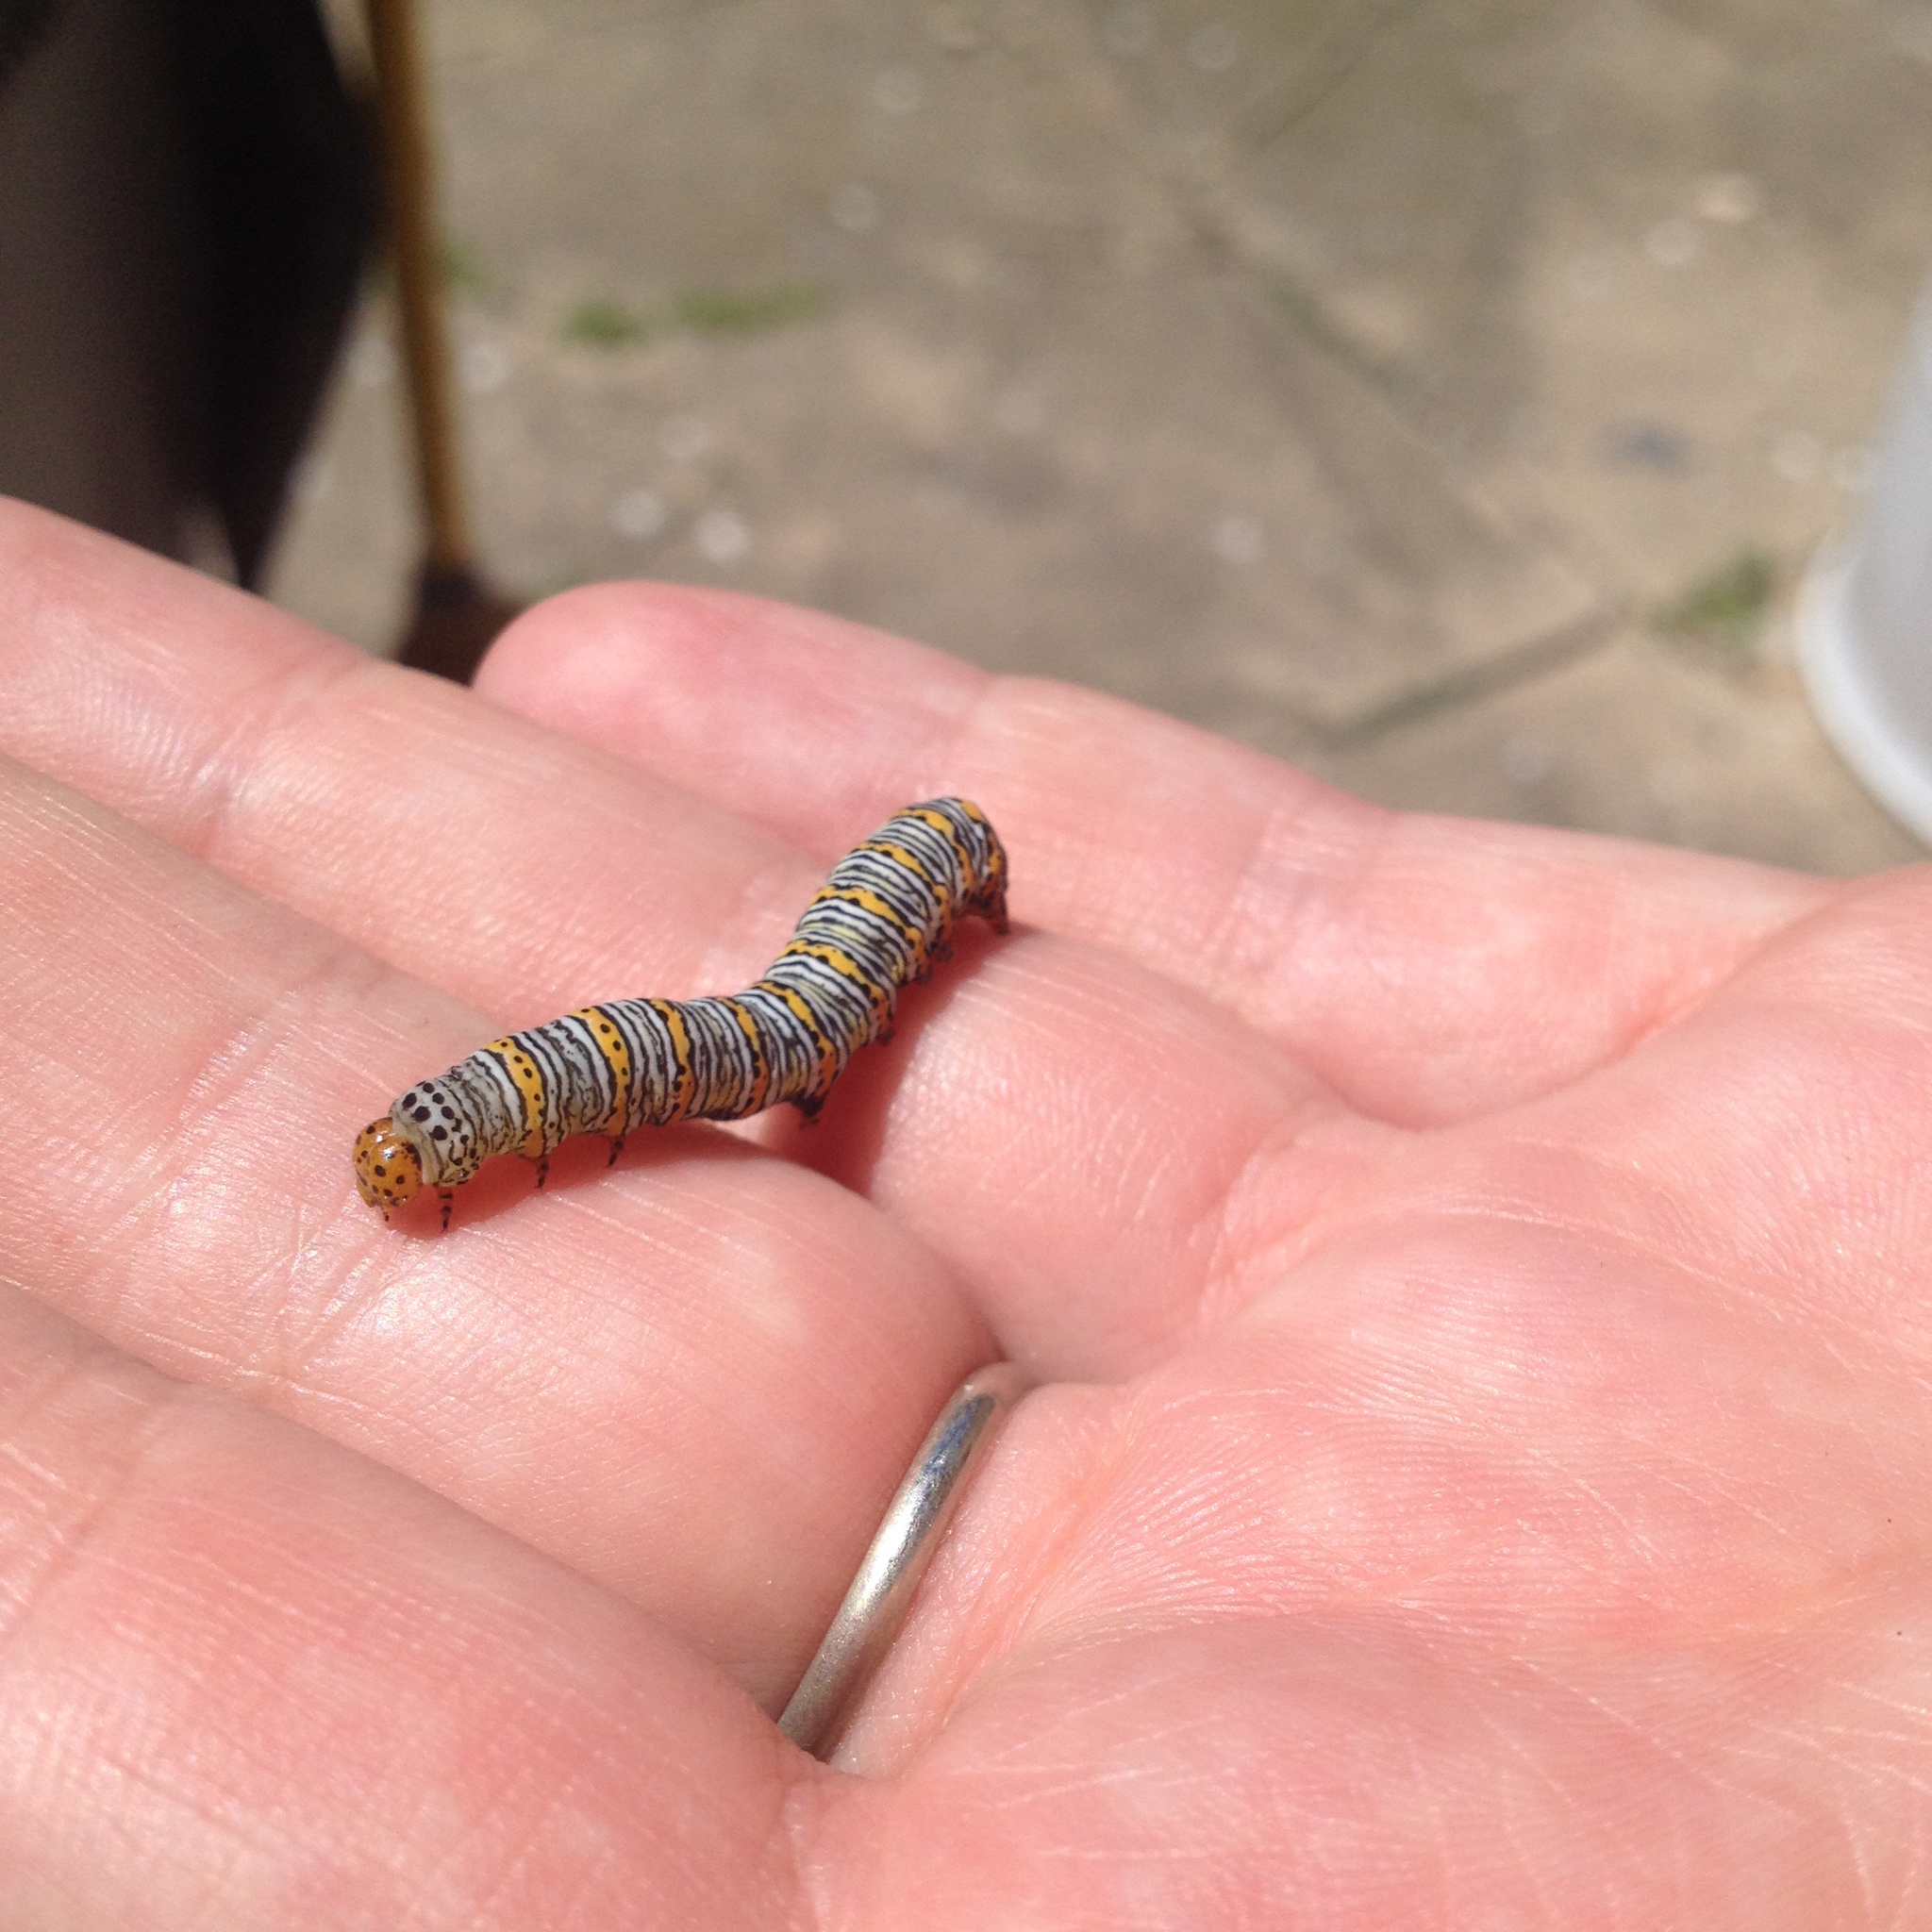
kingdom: Animalia
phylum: Arthropoda
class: Insecta
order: Lepidoptera
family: Noctuidae
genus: Eudryas
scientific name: Eudryas unio
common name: Pearly wood-nymph
